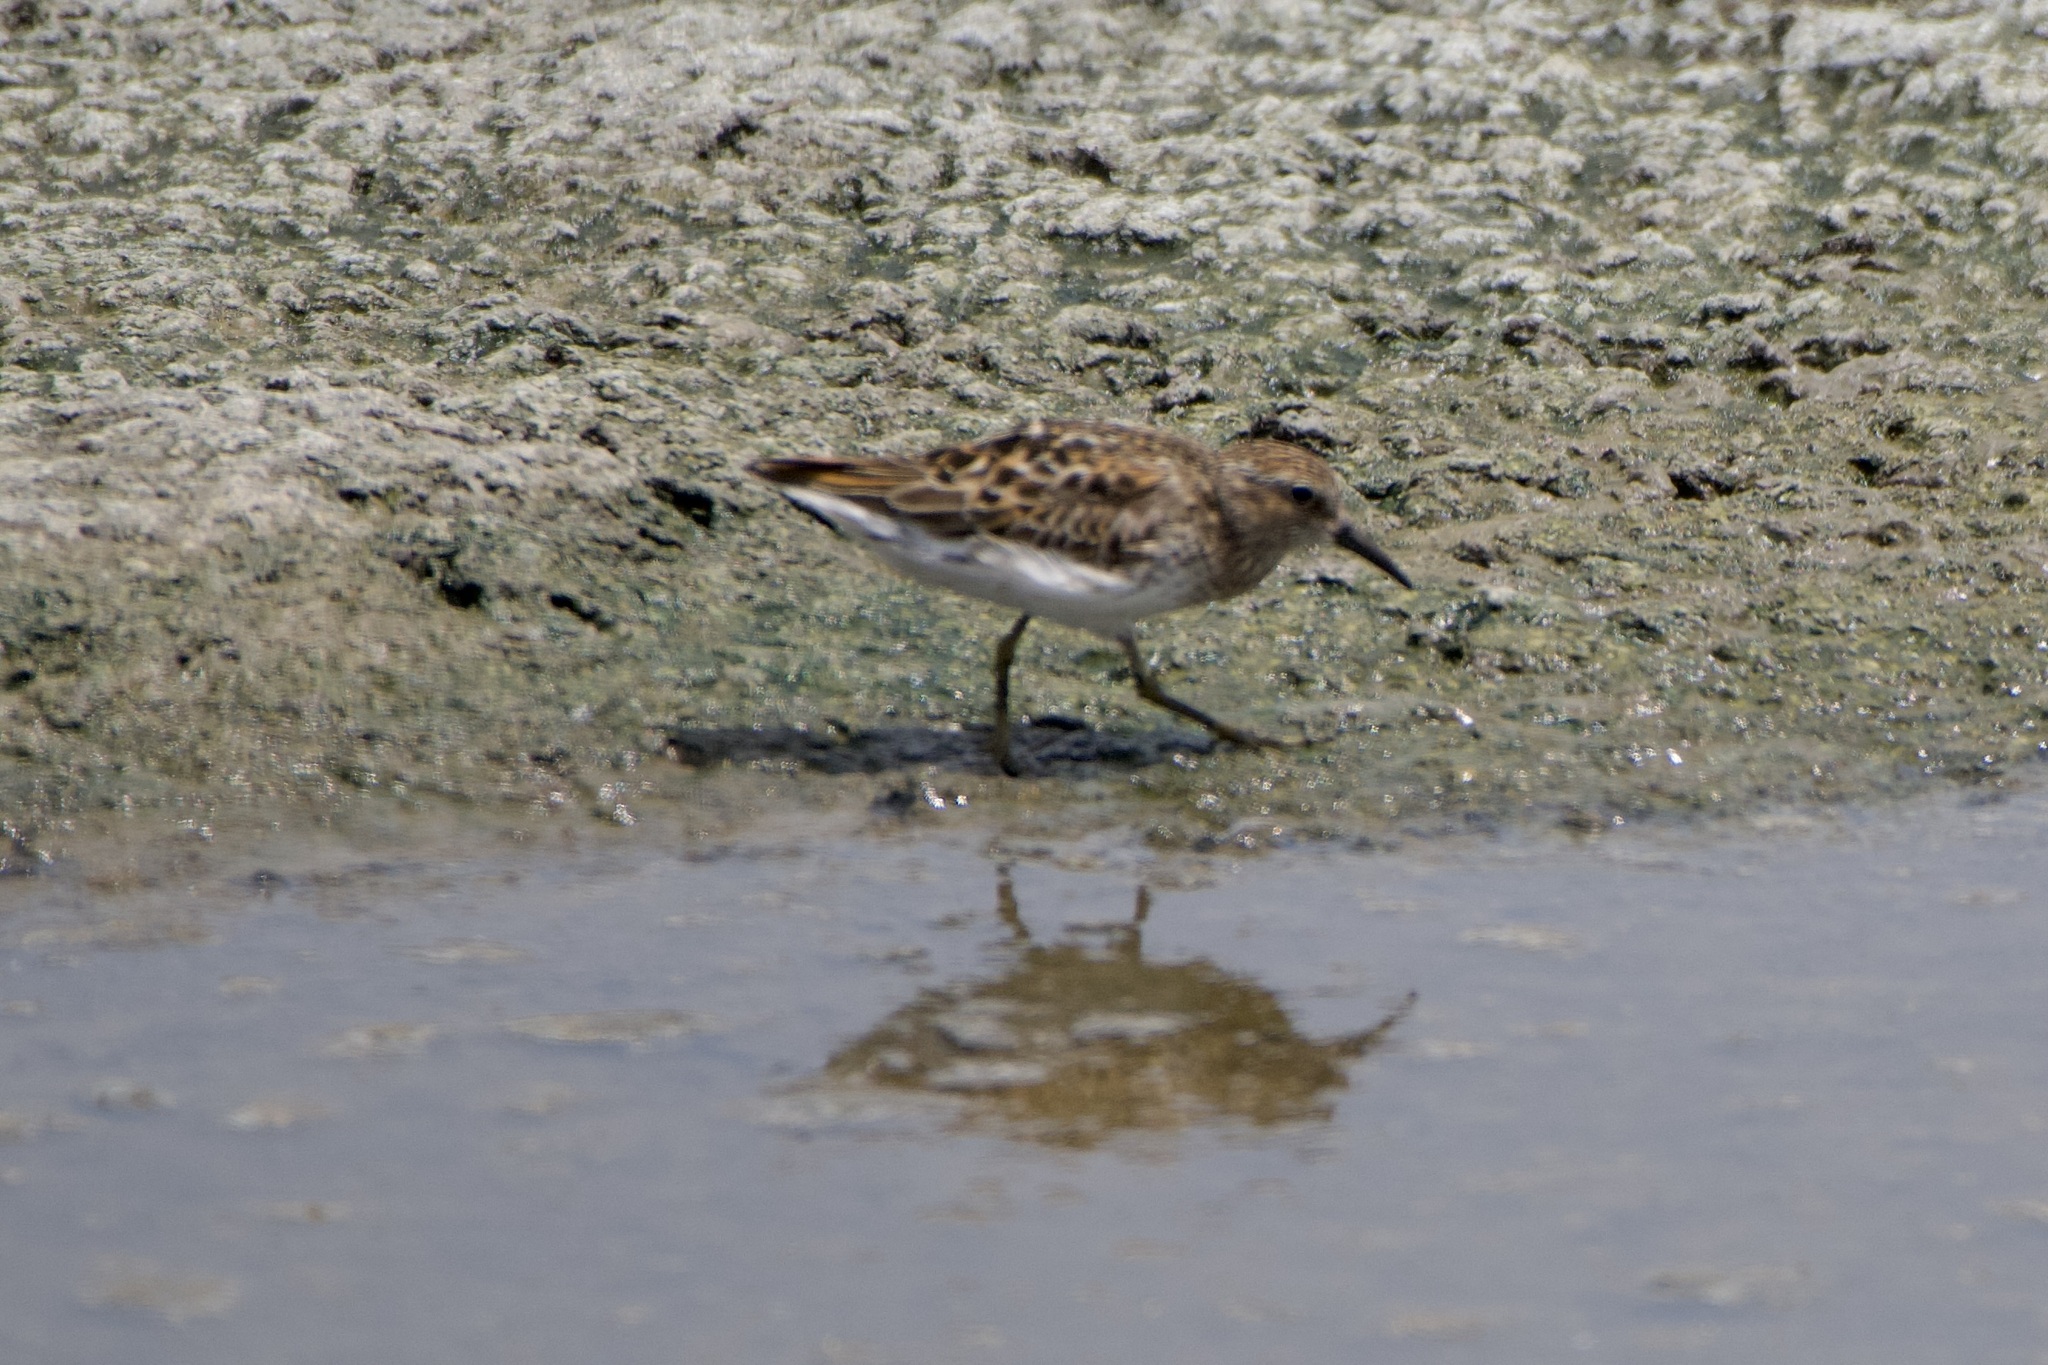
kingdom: Animalia
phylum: Chordata
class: Aves
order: Charadriiformes
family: Scolopacidae
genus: Calidris
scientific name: Calidris minutilla
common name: Least sandpiper
